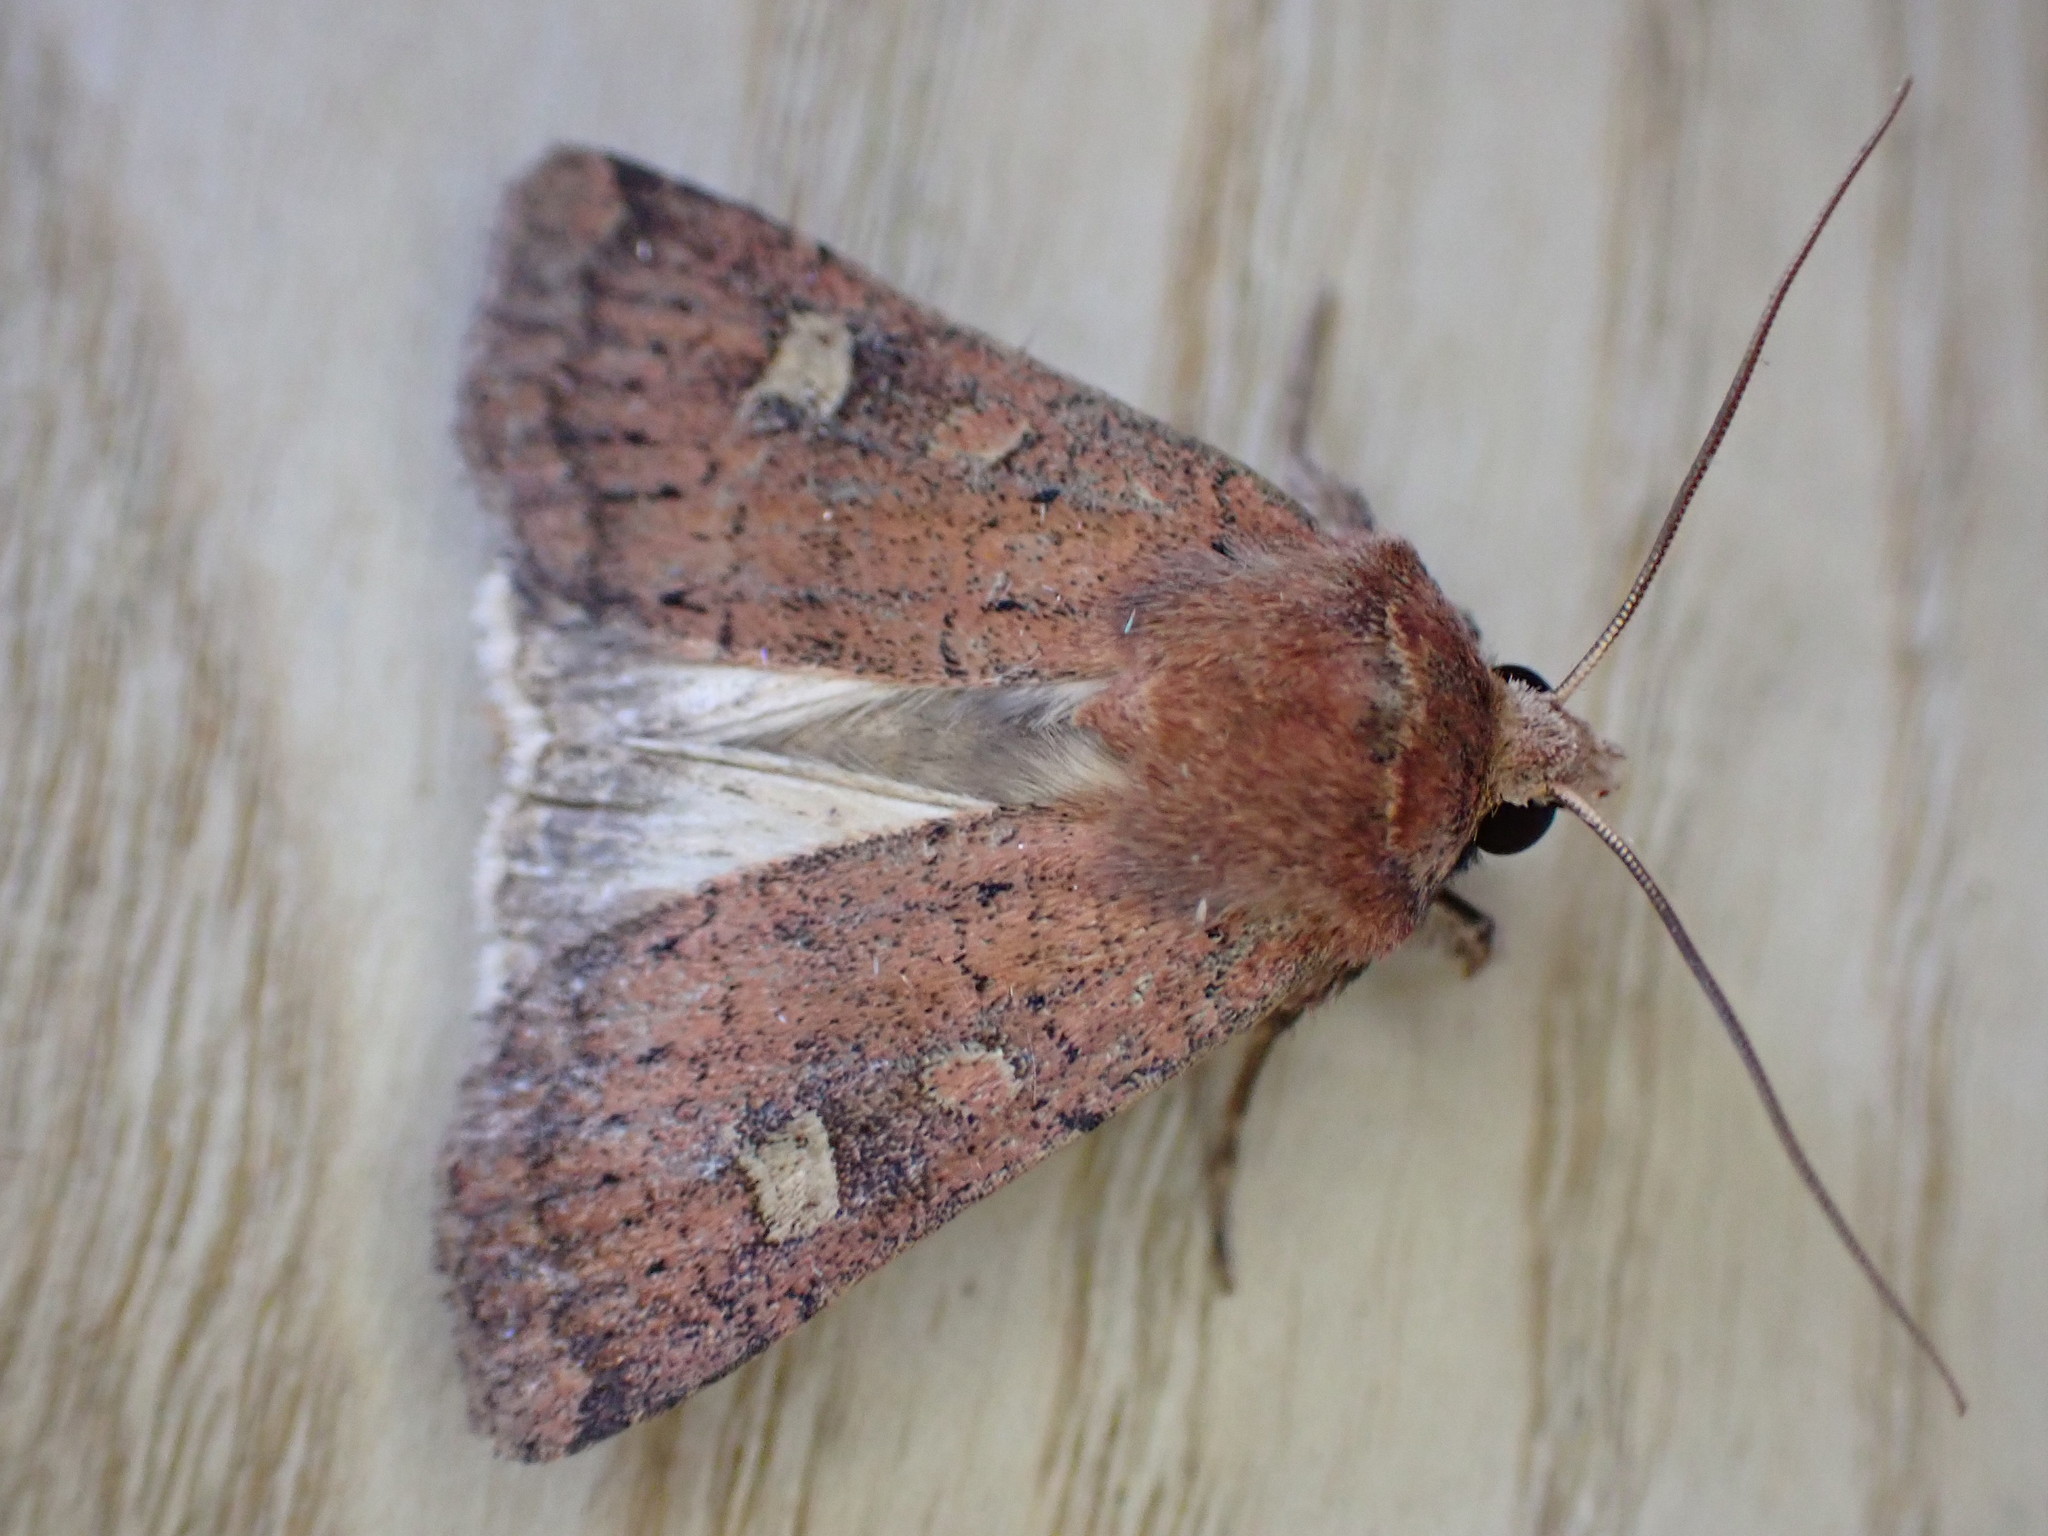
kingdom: Animalia
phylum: Arthropoda
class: Insecta
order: Lepidoptera
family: Noctuidae
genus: Xestia
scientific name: Xestia xanthographa
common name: Square-spot rustic
